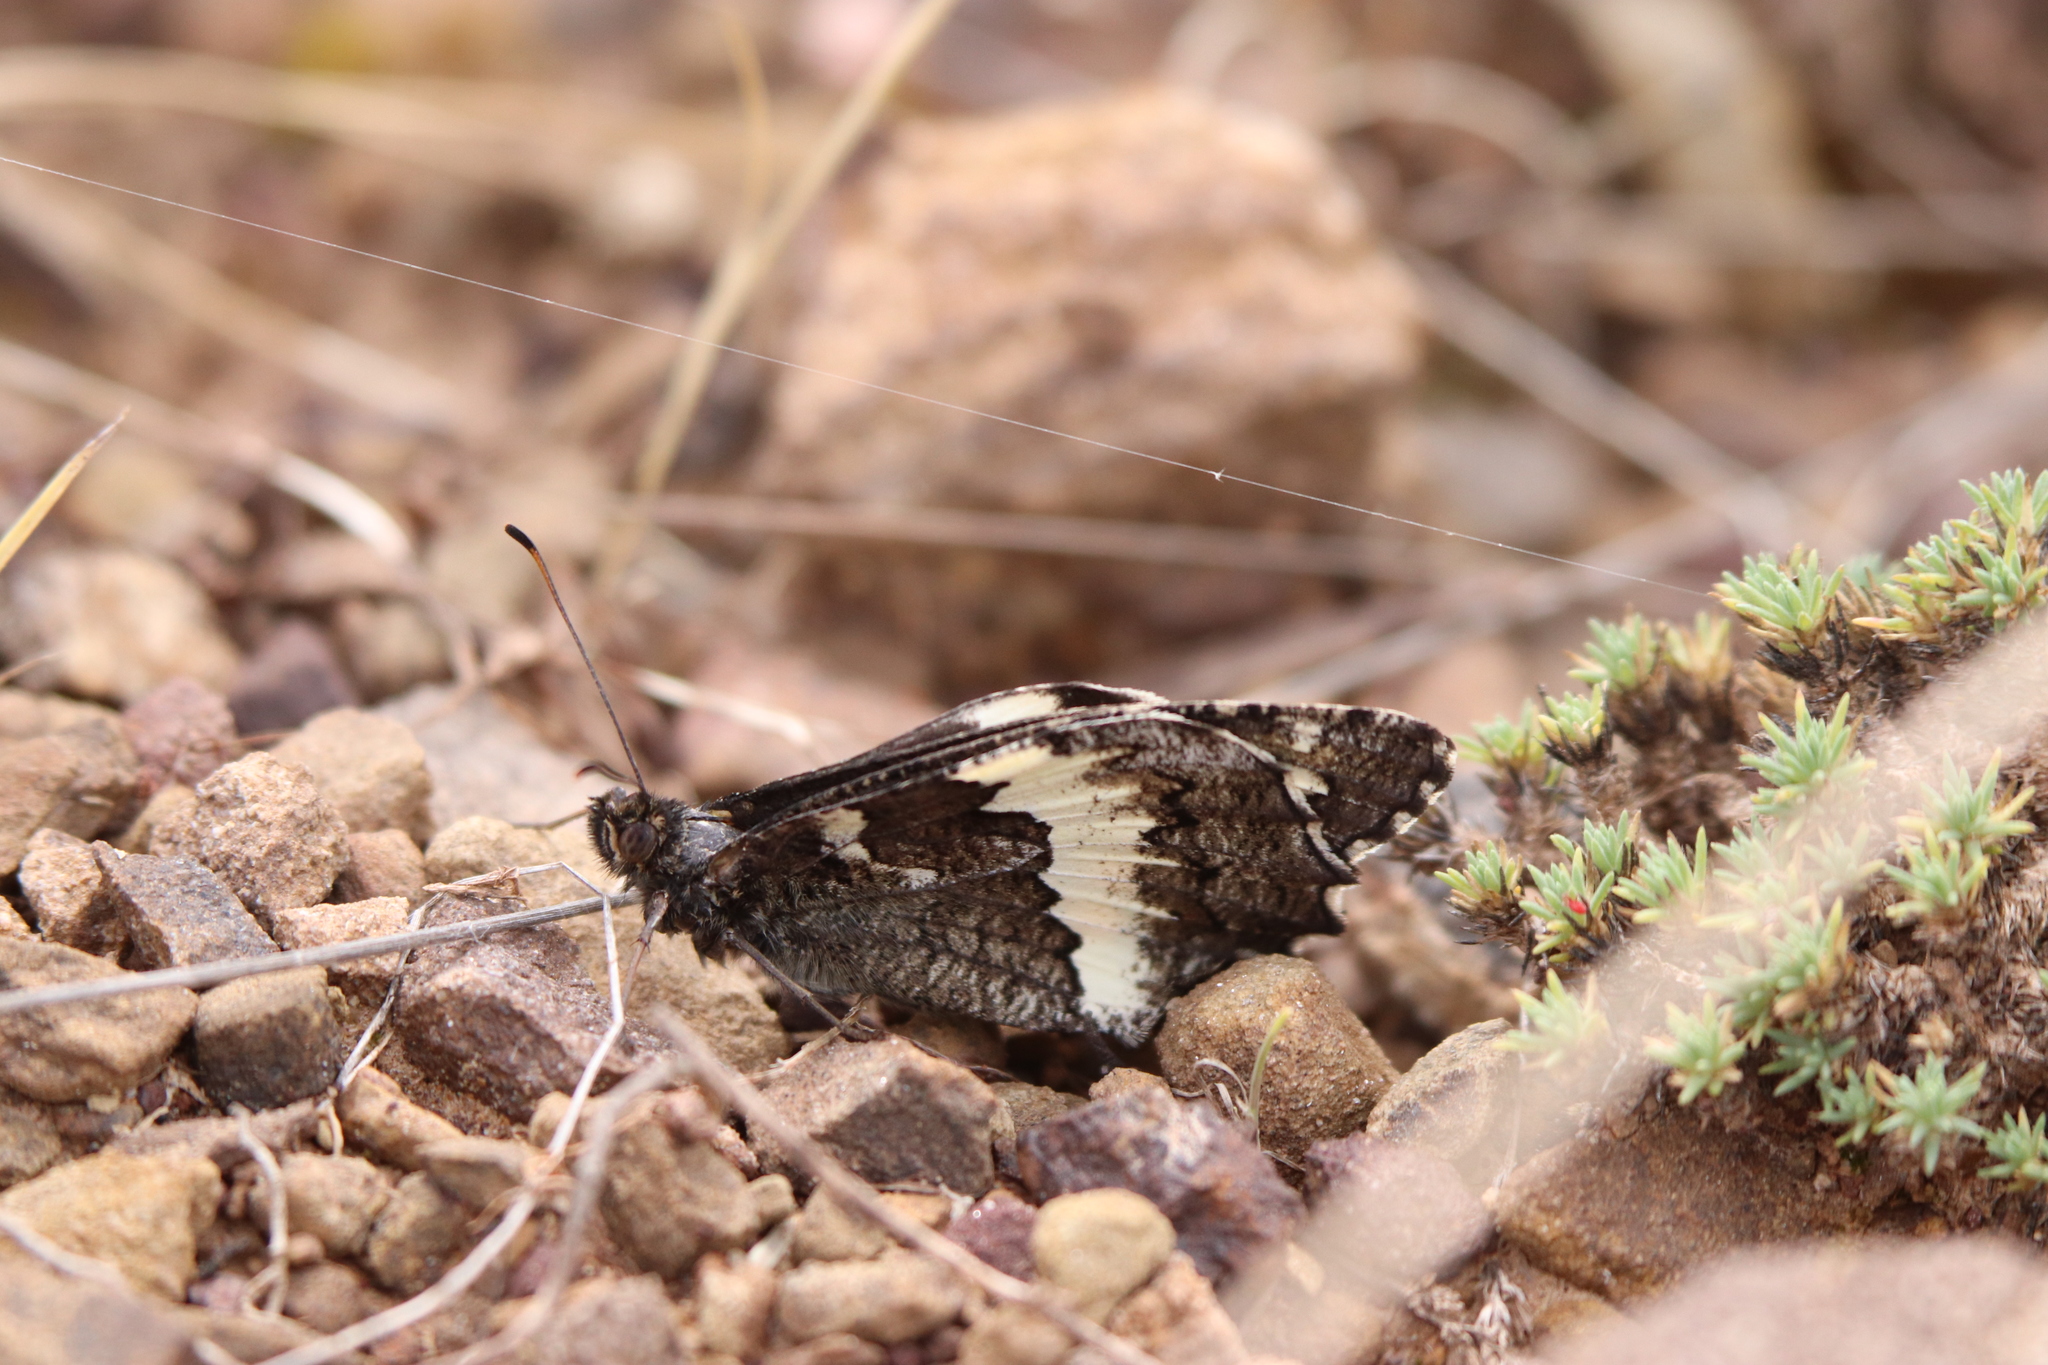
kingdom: Animalia
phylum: Arthropoda
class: Insecta
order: Lepidoptera
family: Lycaenidae
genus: Loweia
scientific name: Loweia tityrus
